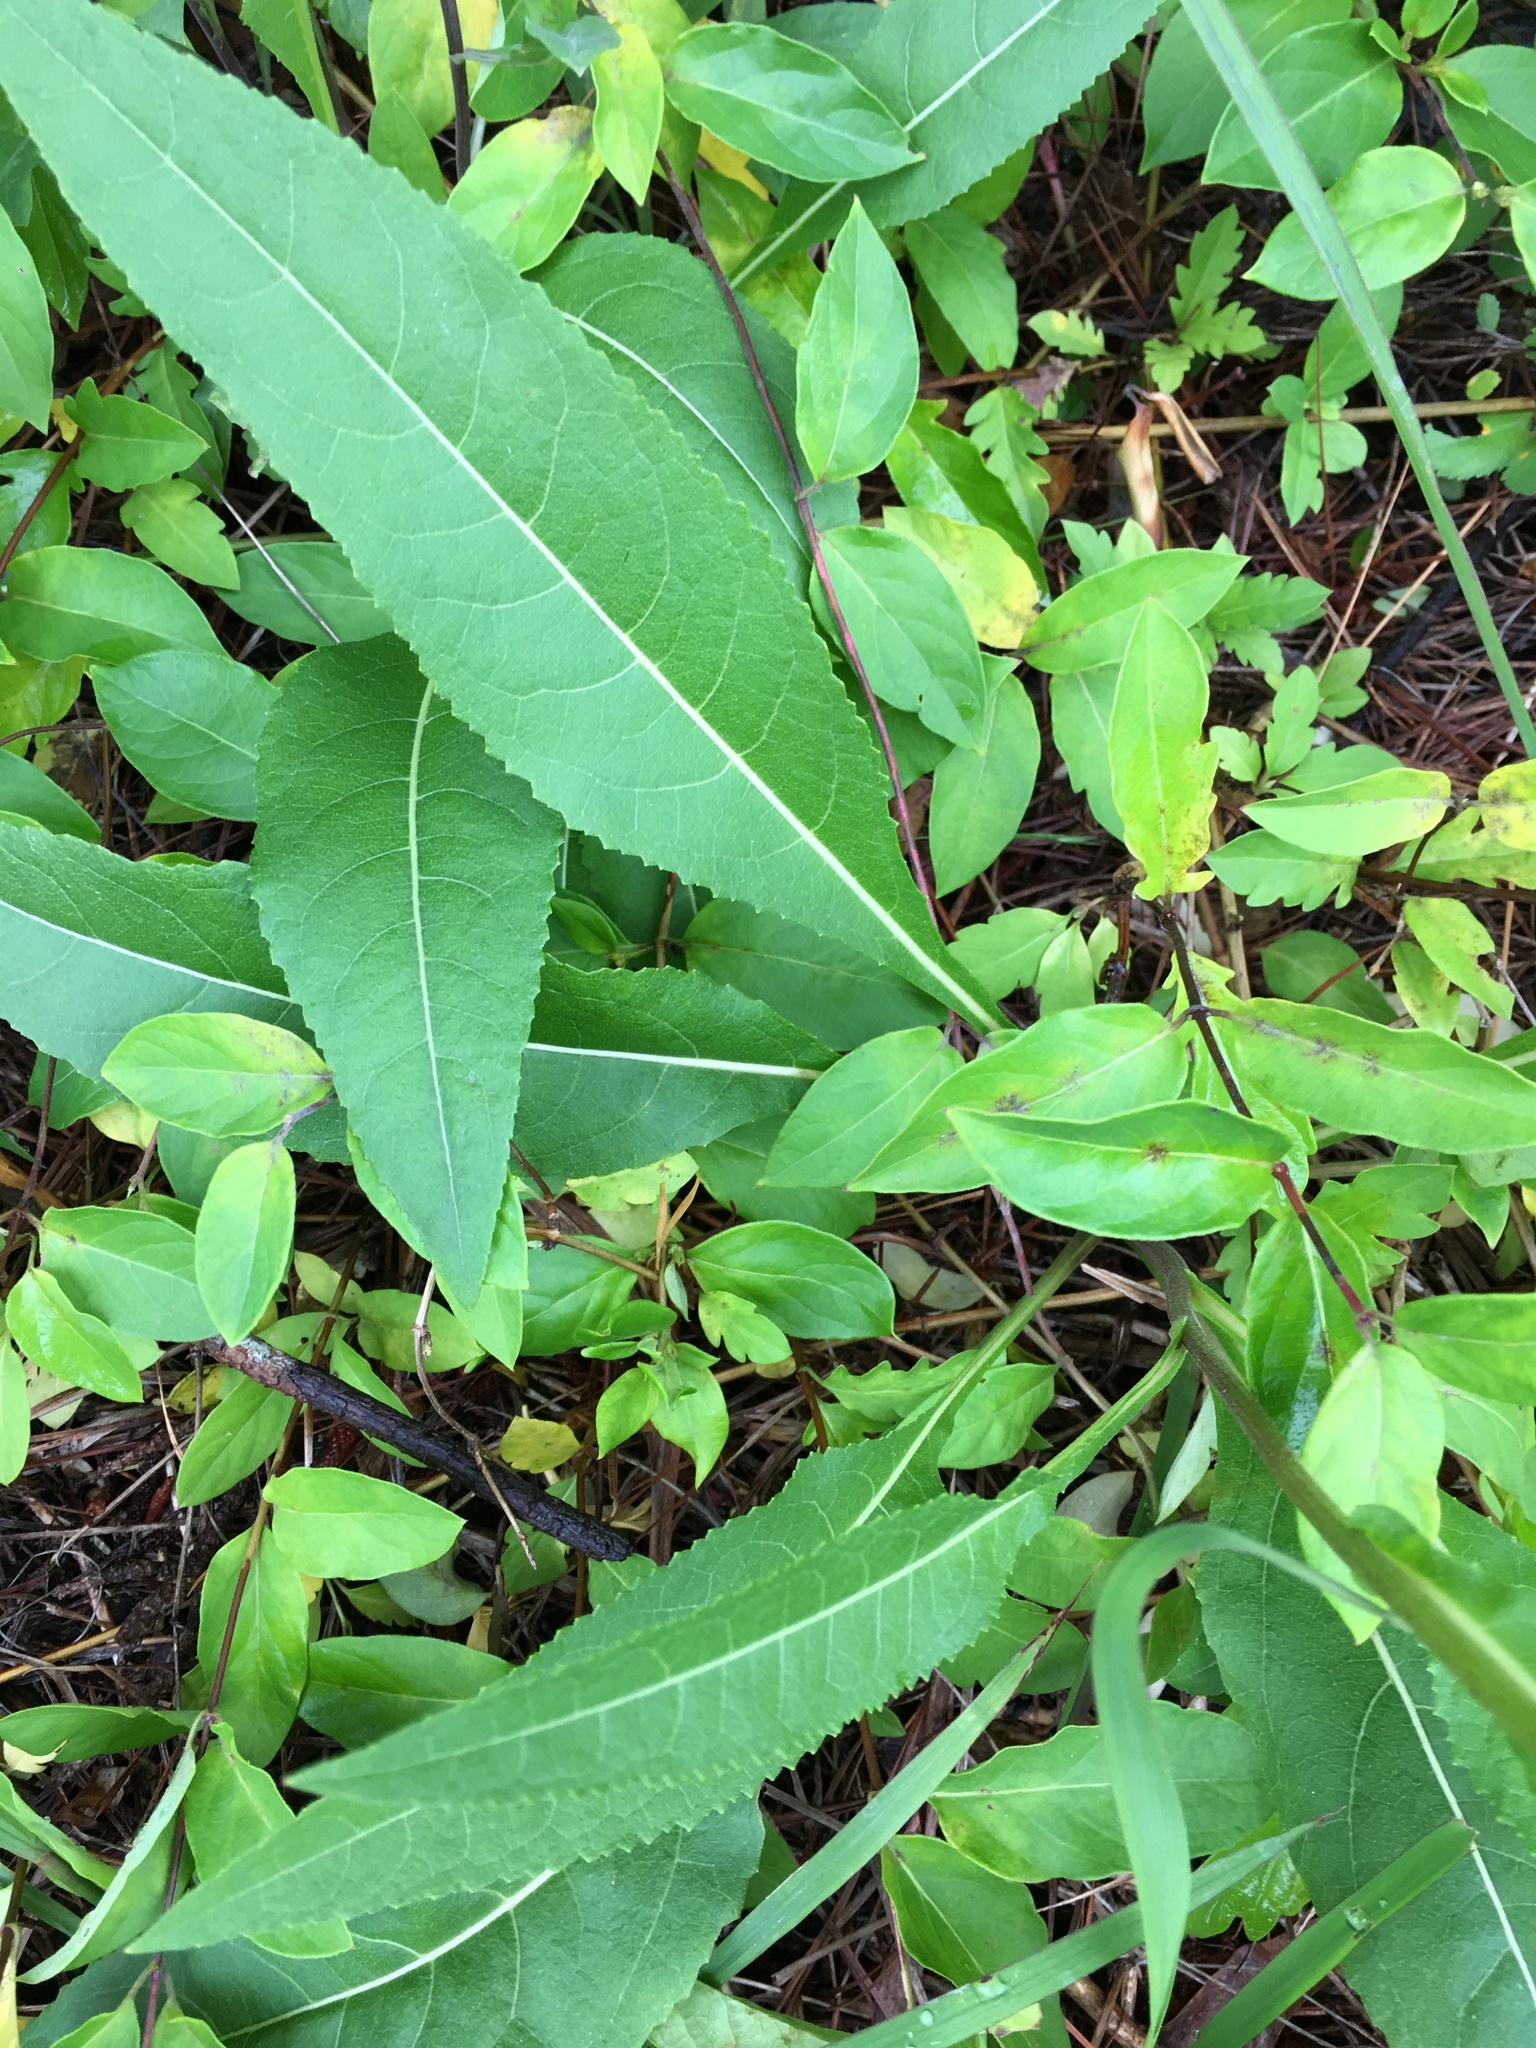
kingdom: Plantae
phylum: Tracheophyta
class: Magnoliopsida
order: Asterales
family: Asteraceae
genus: Parthenium
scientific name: Parthenium integrifolium
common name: American feverfew
